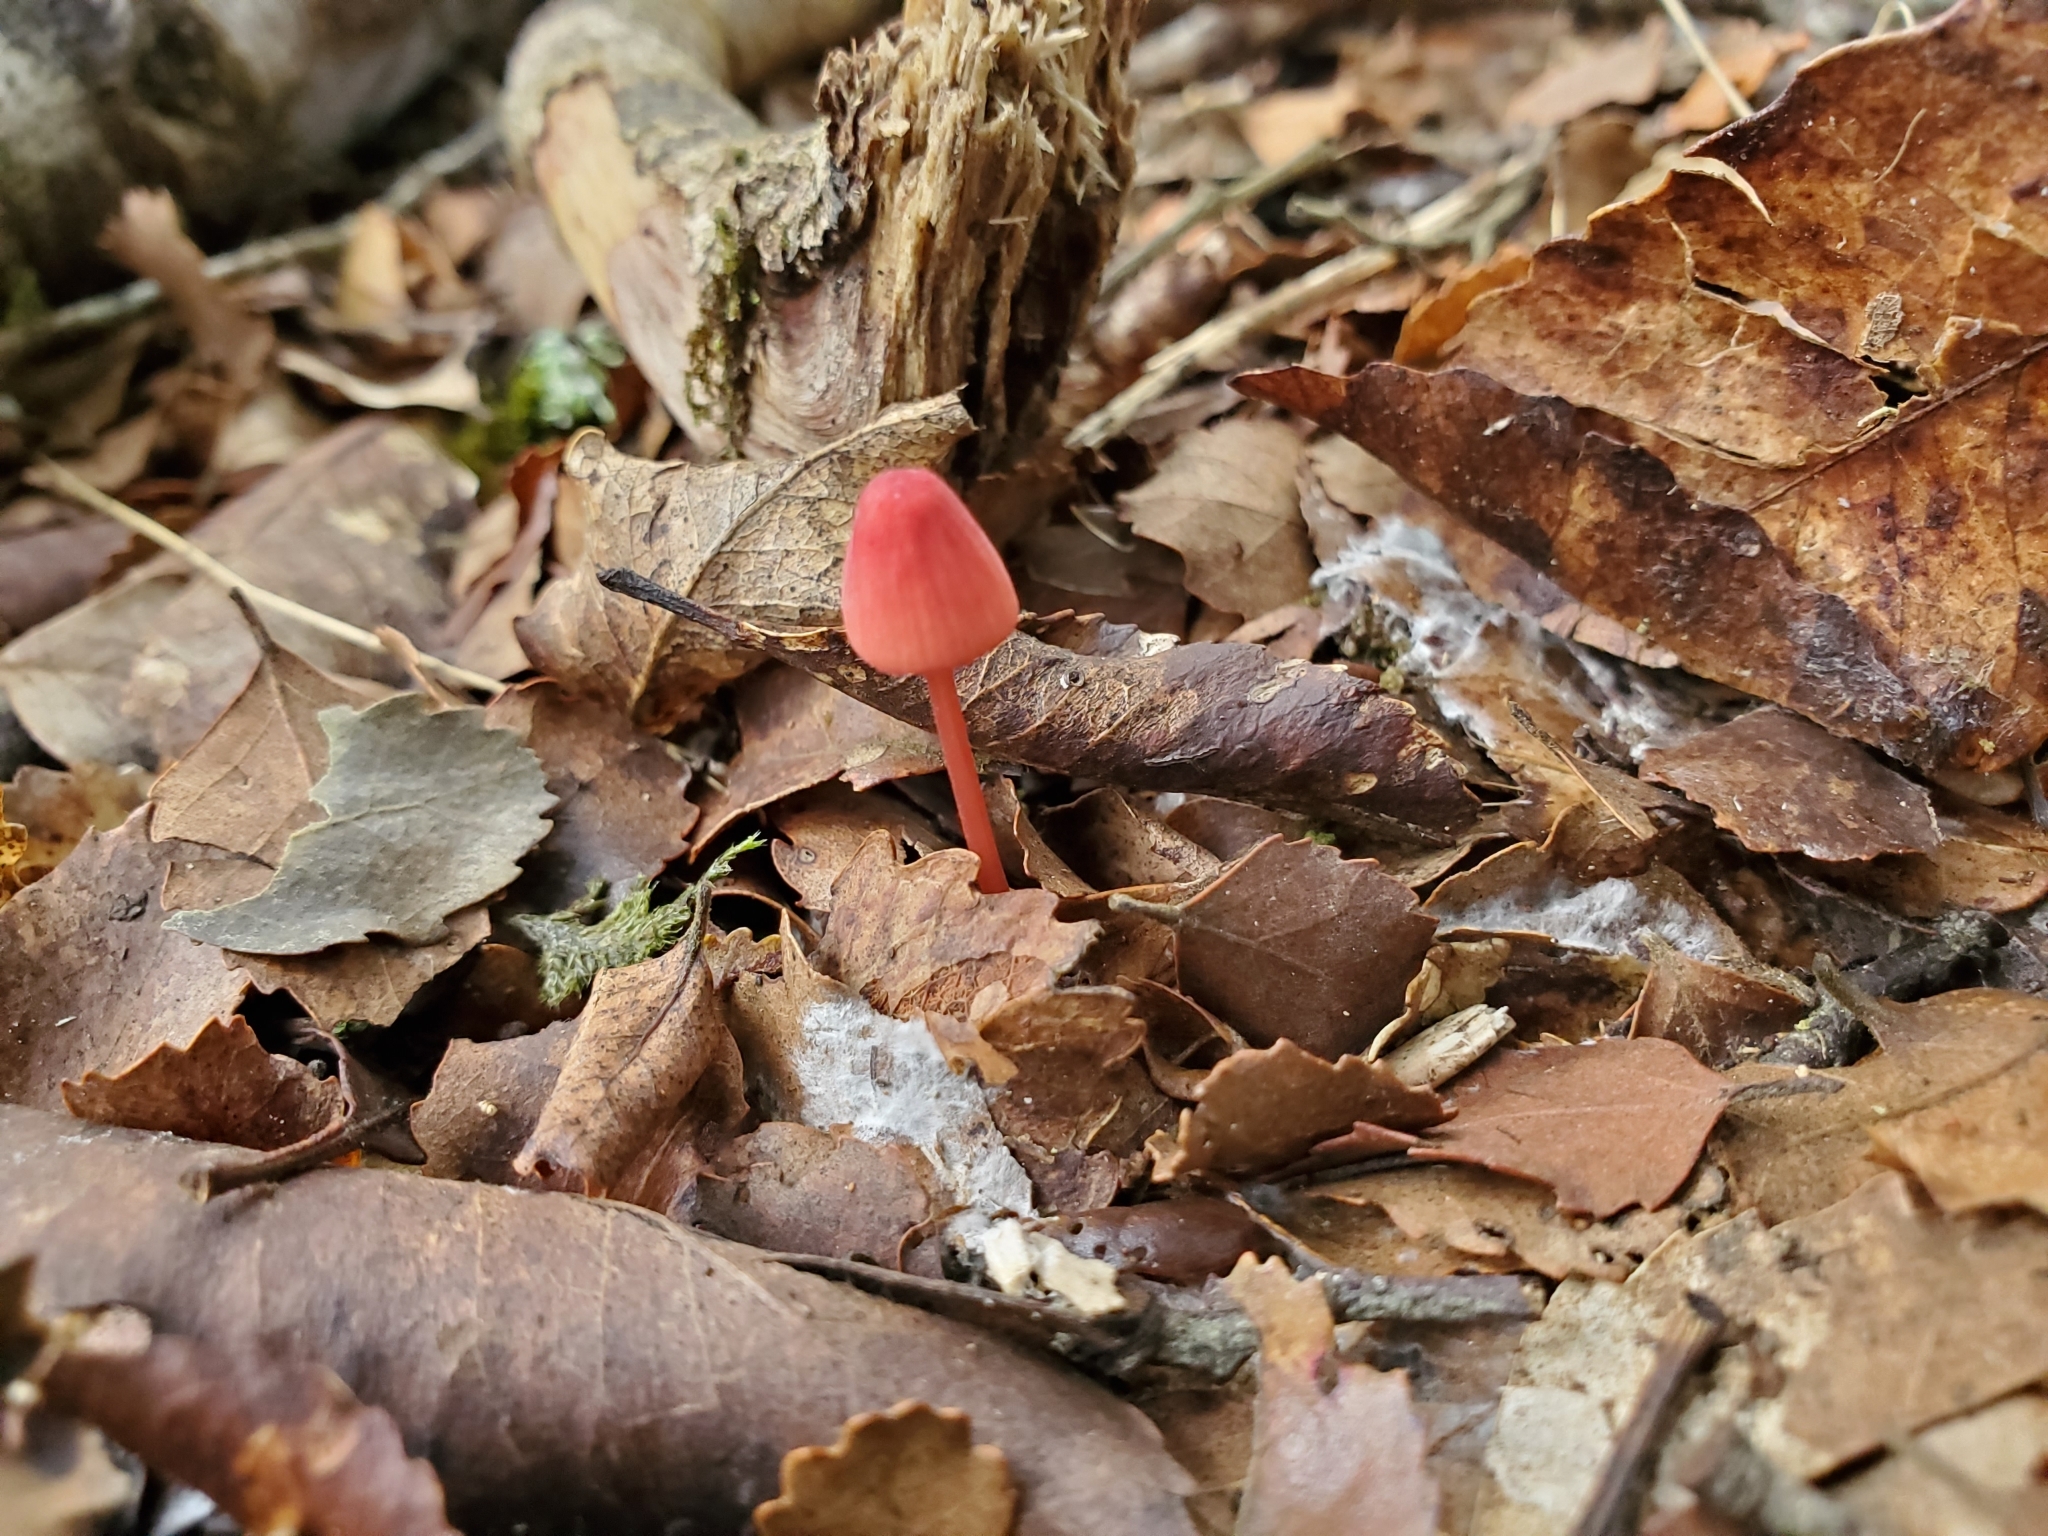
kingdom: Fungi
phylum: Basidiomycota
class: Agaricomycetes
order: Agaricales
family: Mycenaceae
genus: Mycena
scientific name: Mycena ura
